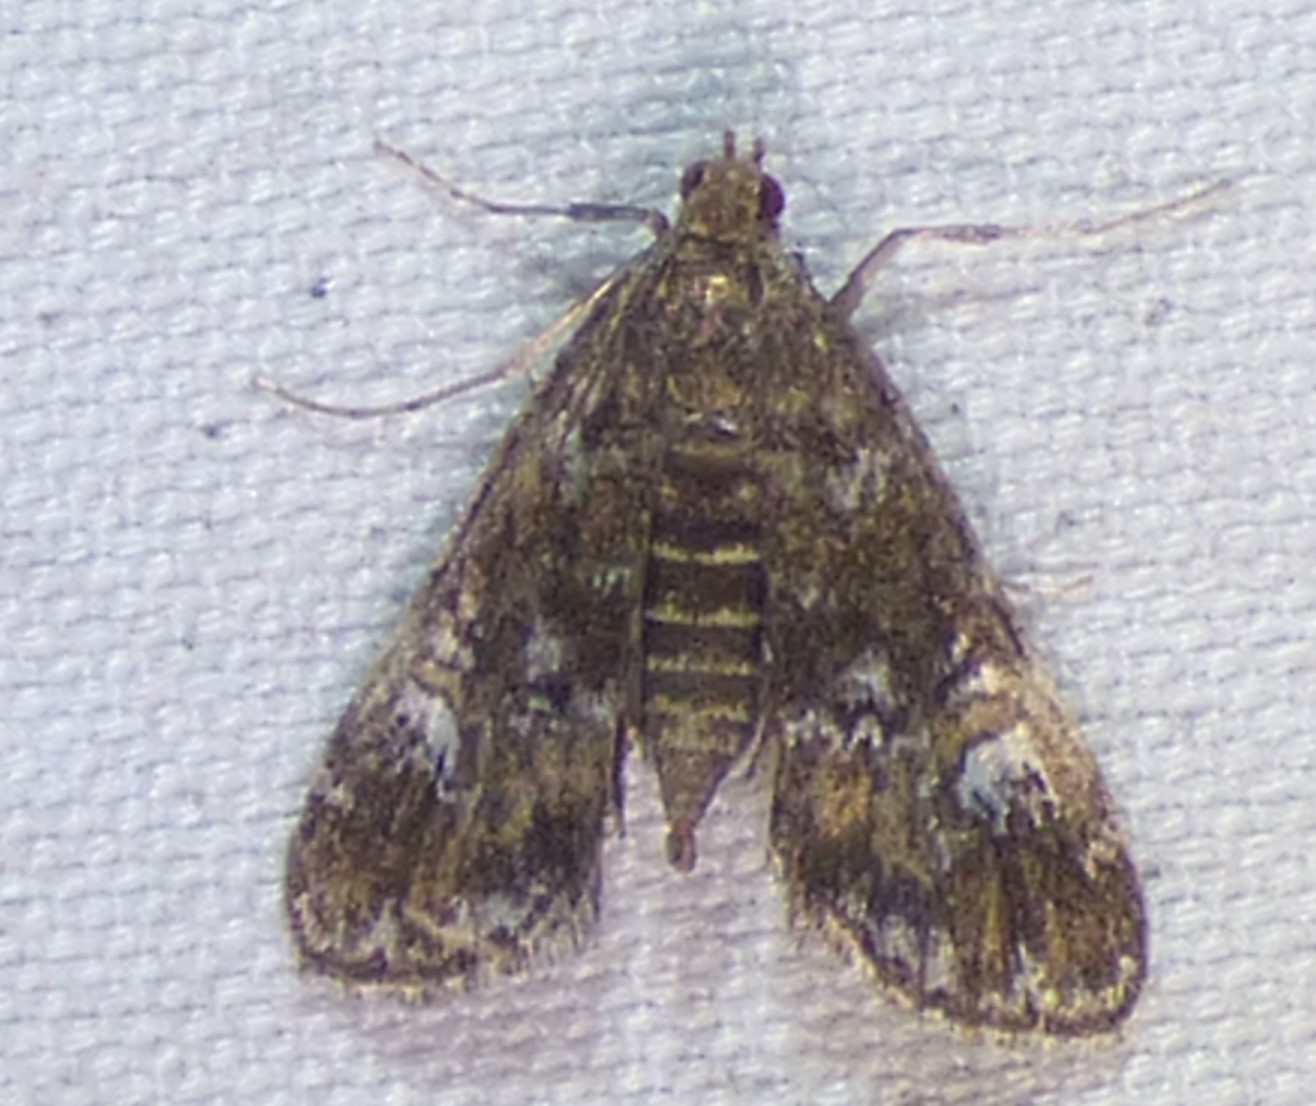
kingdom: Animalia
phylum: Arthropoda
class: Insecta
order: Lepidoptera
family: Crambidae
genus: Elophila
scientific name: Elophila obliteralis
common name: Waterlily leafcutter moth
